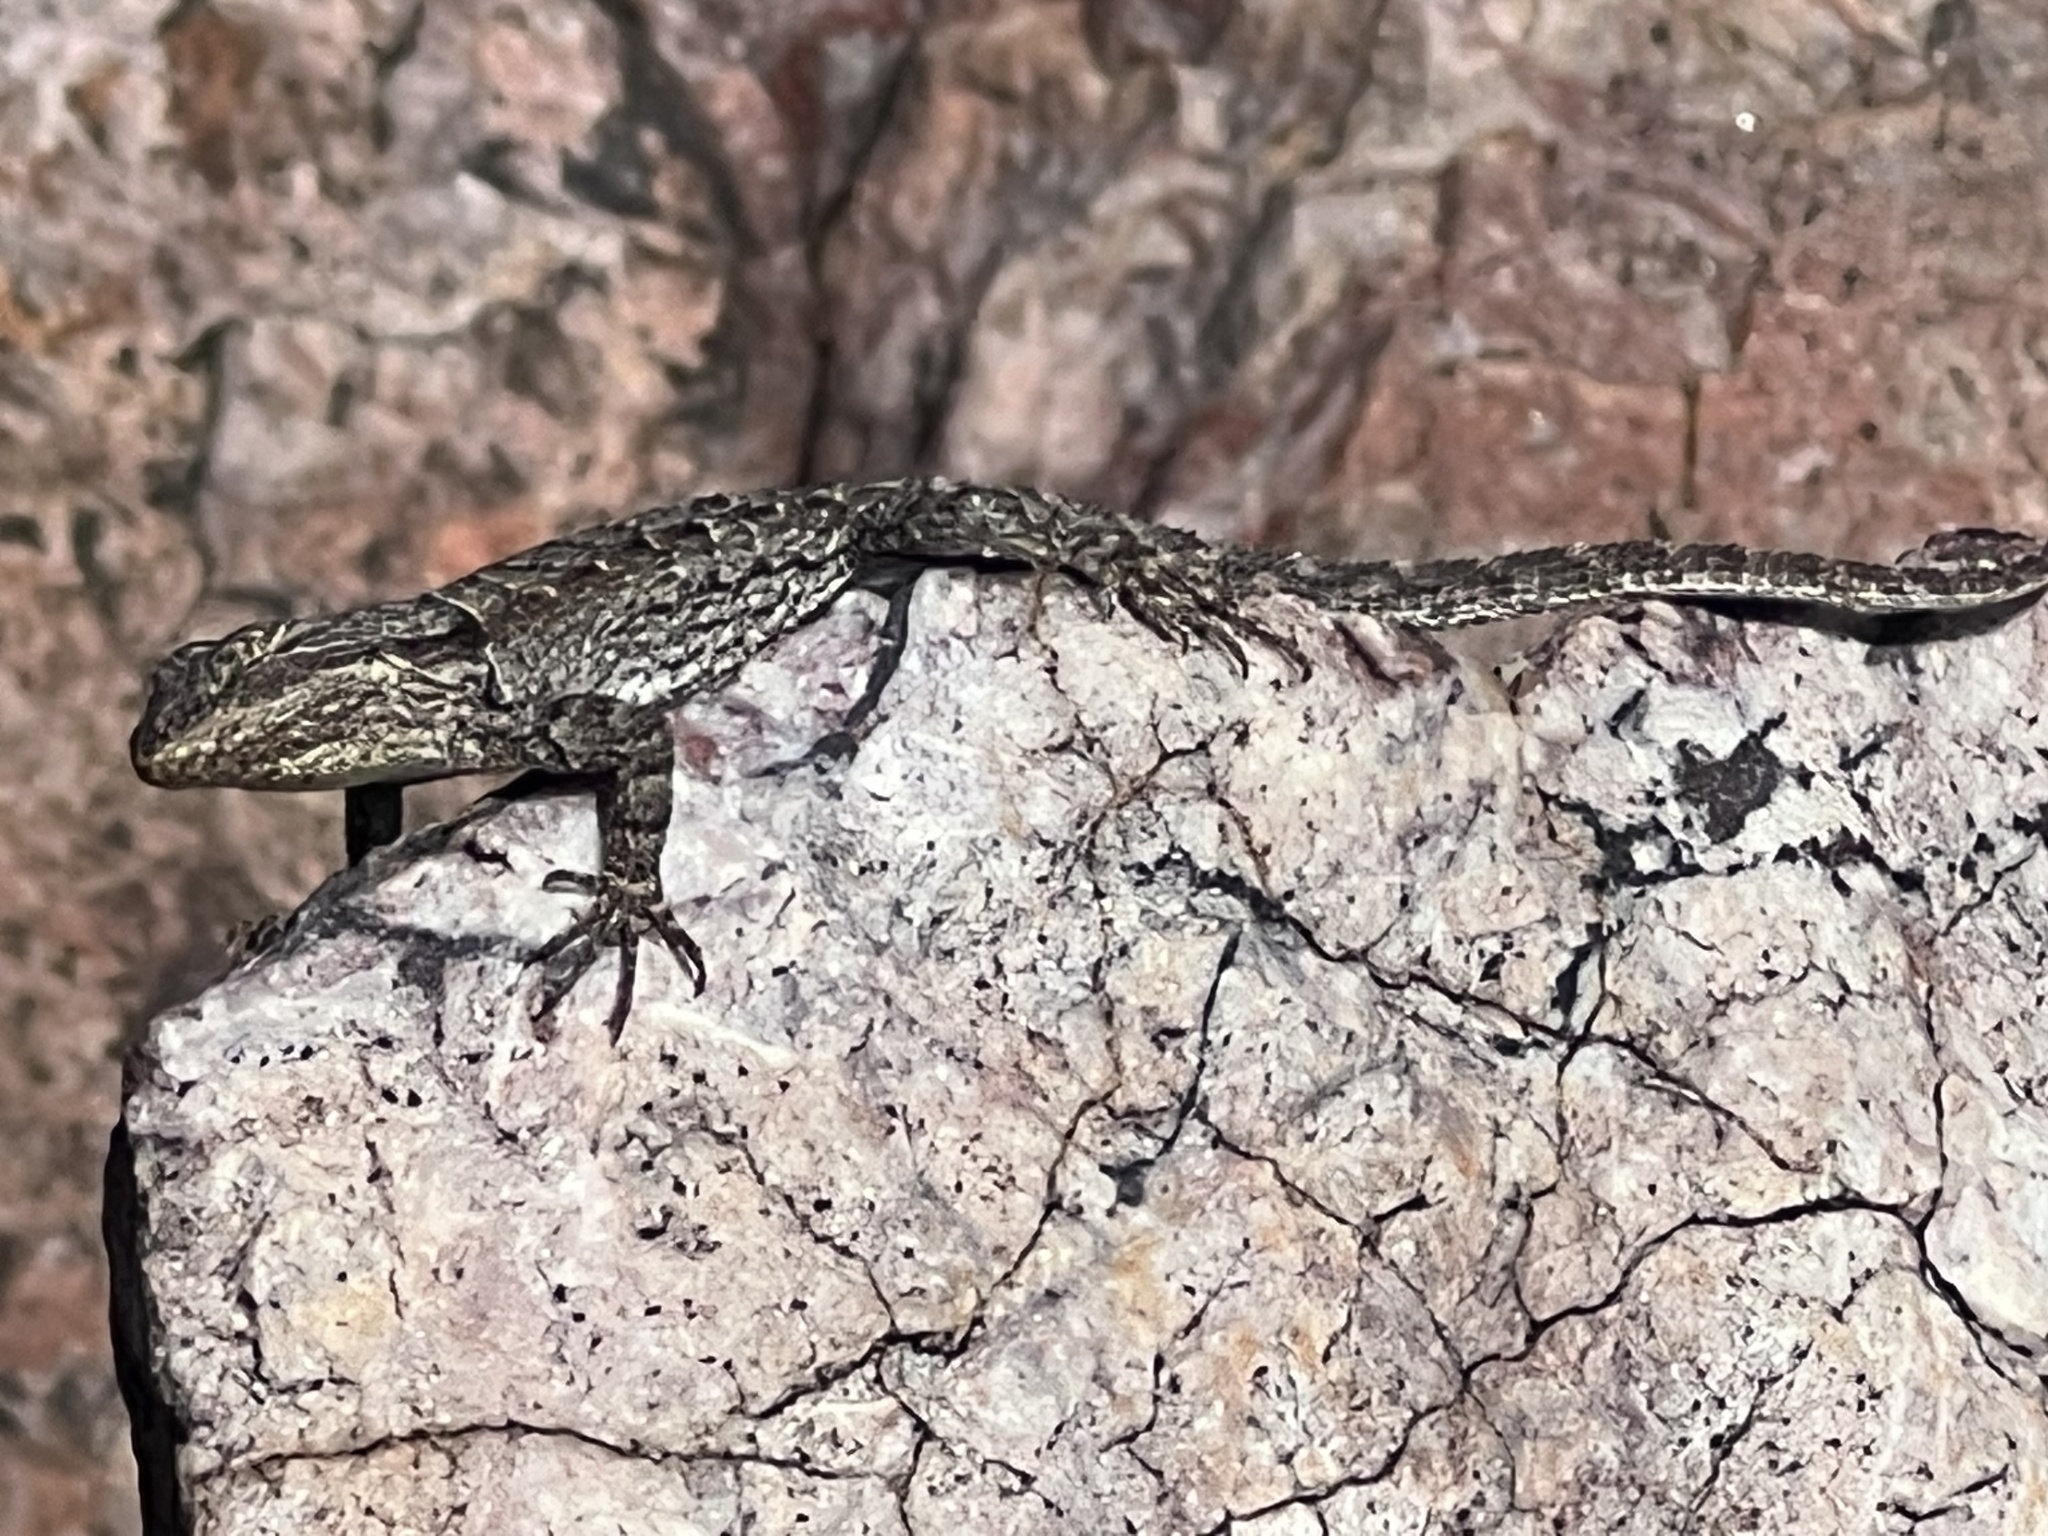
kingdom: Animalia
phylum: Chordata
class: Squamata
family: Phrynosomatidae
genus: Urosaurus
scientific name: Urosaurus ornatus
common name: Ornate tree lizard
